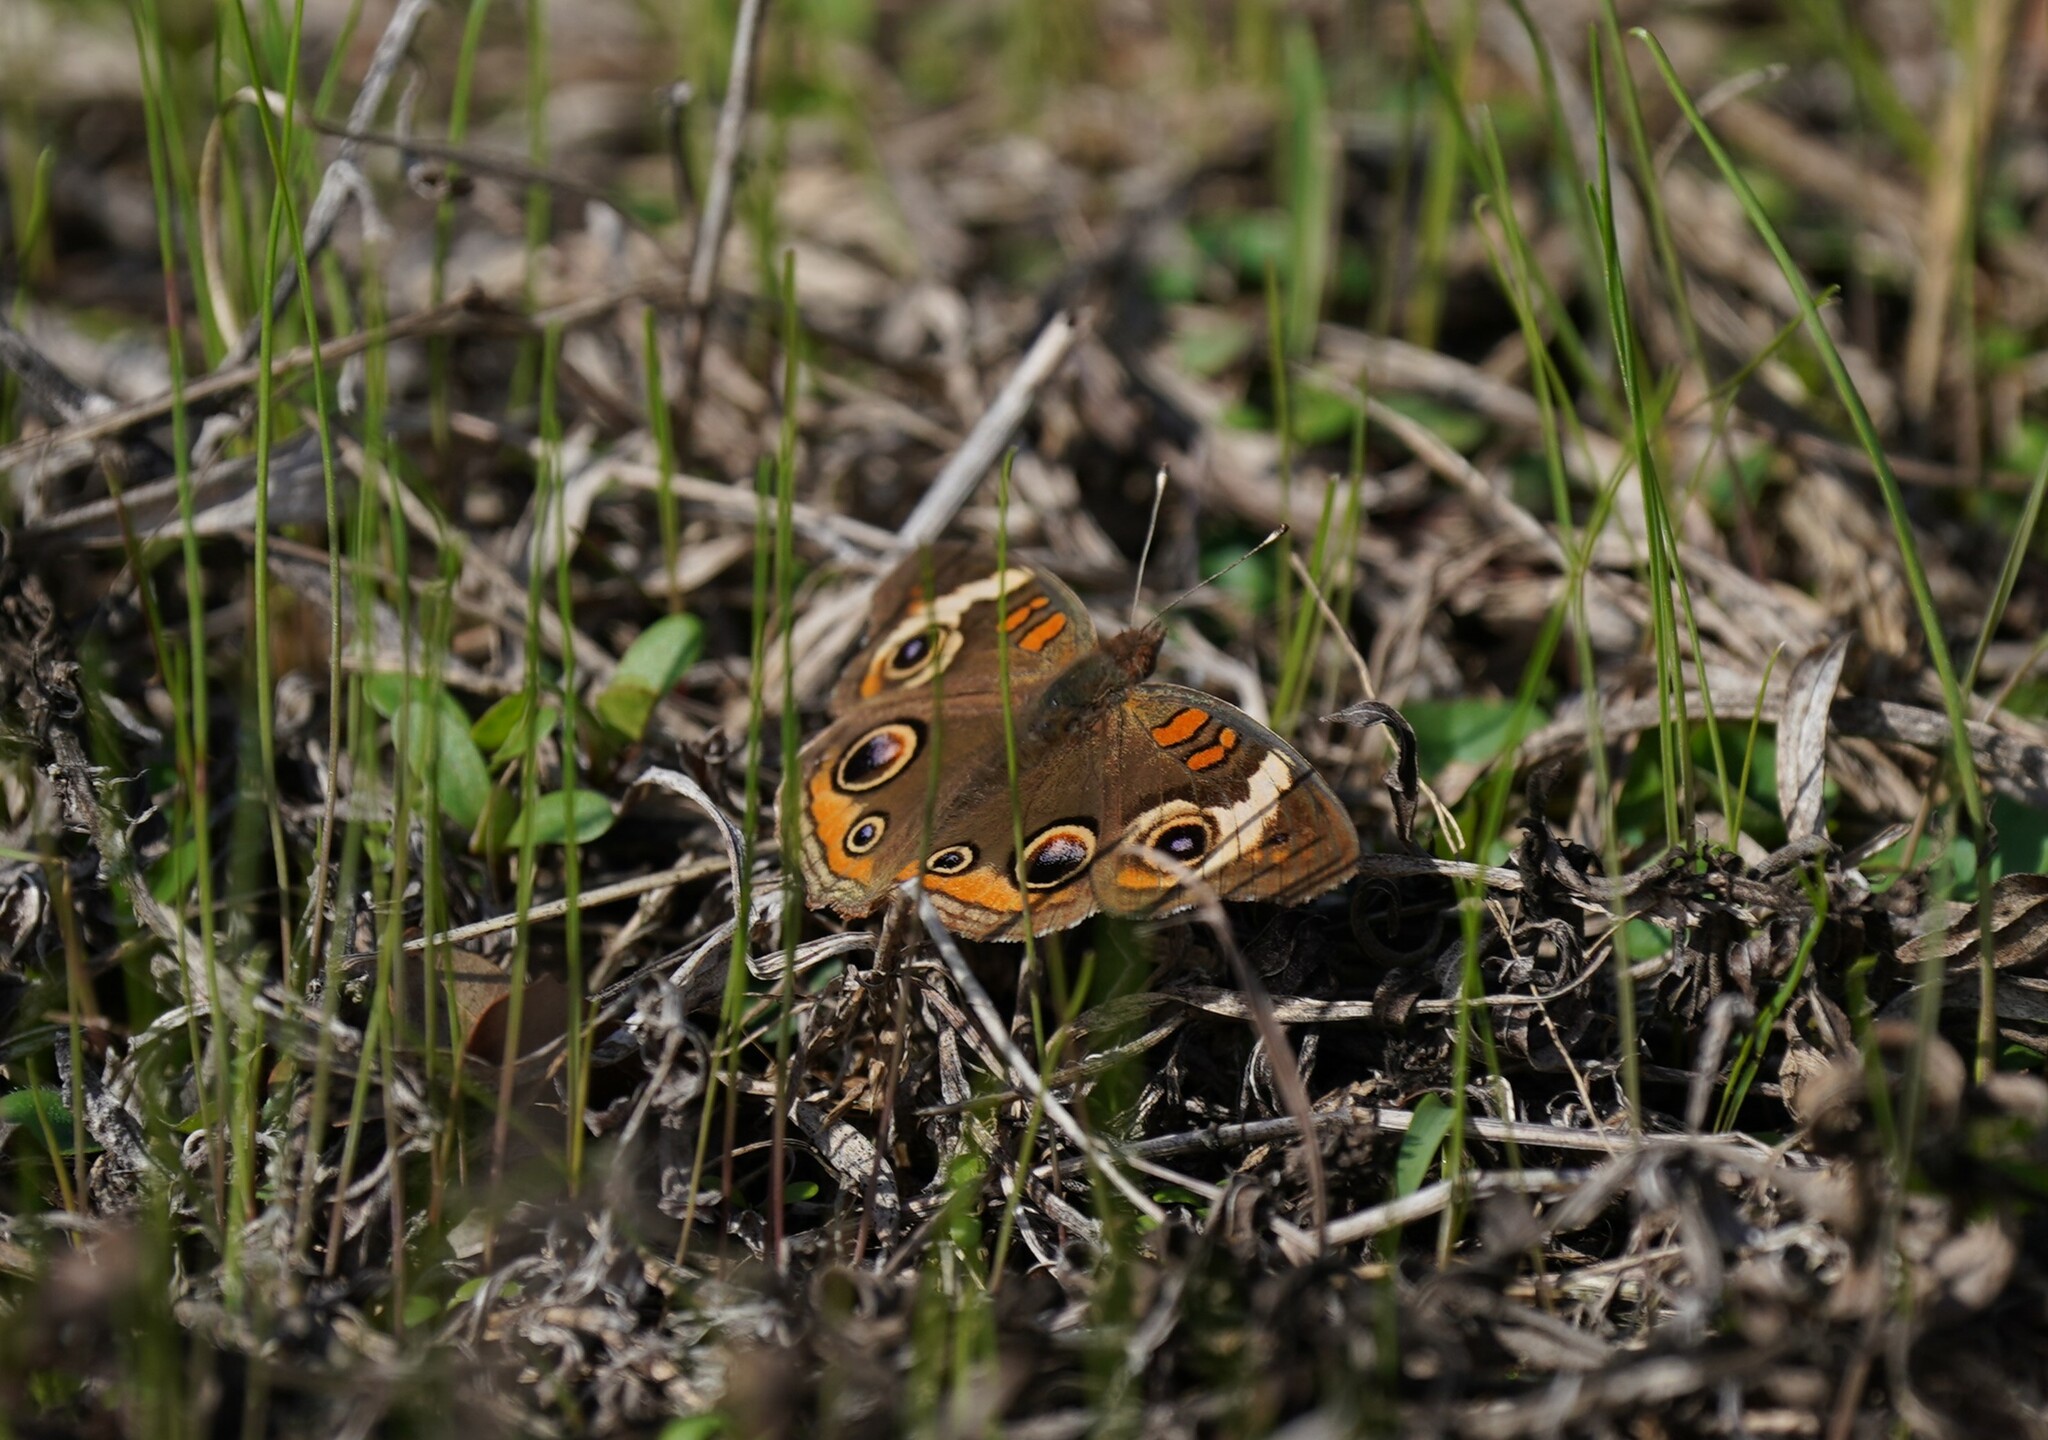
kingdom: Animalia
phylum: Arthropoda
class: Insecta
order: Lepidoptera
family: Nymphalidae
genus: Junonia
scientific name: Junonia coenia
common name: Common buckeye
